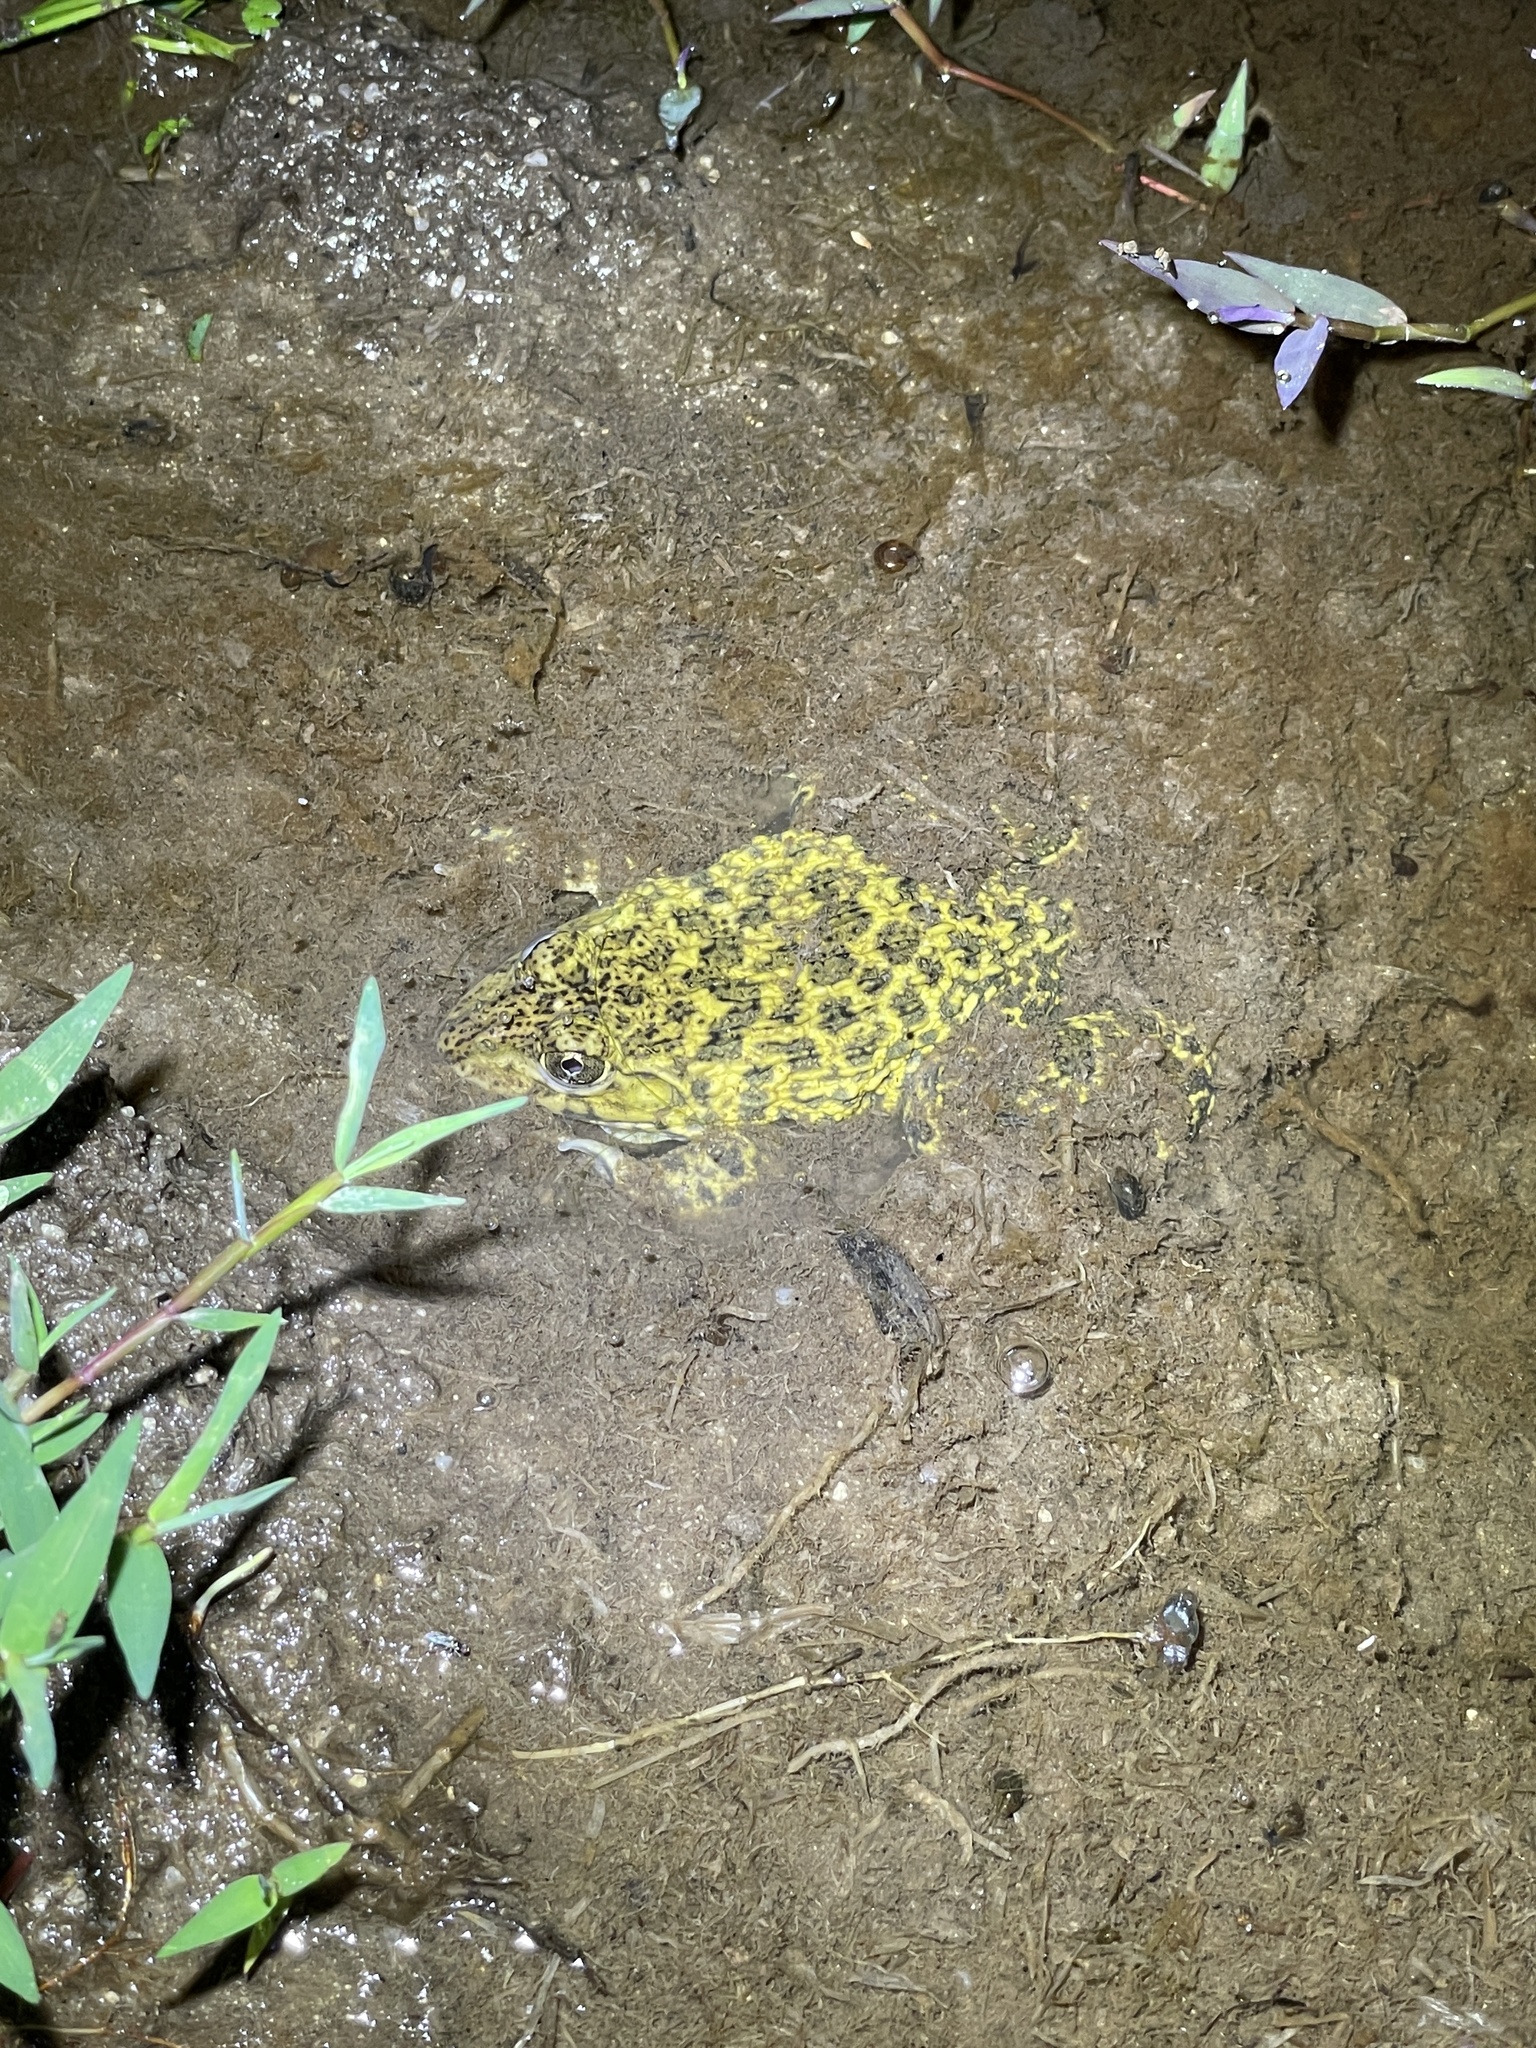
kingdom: Animalia
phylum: Chordata
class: Amphibia
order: Anura
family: Dicroglossidae
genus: Hoplobatrachus
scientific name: Hoplobatrachus rugulosus
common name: Chinese edible frog
